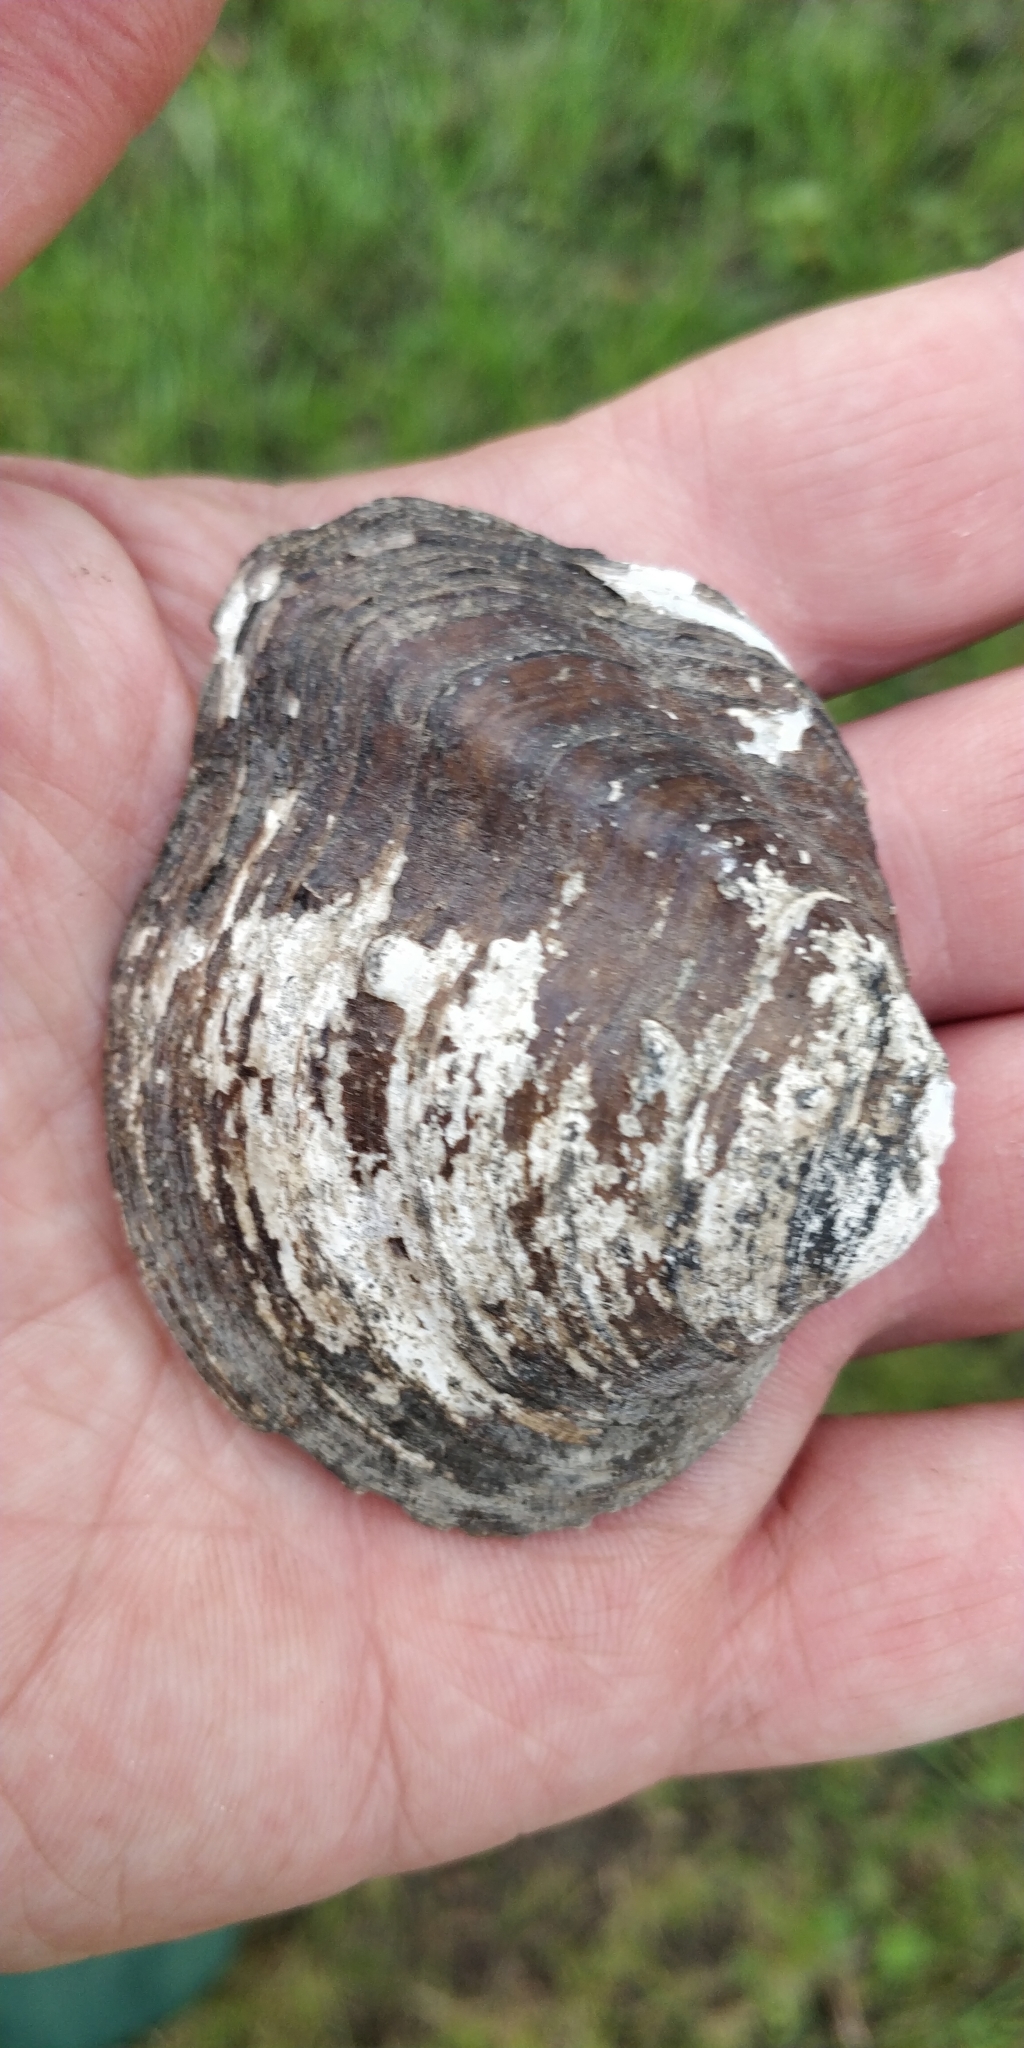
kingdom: Animalia
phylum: Mollusca
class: Bivalvia
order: Unionida
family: Unionidae
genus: Quadrula
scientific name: Quadrula quadrula
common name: Mapleleaf
